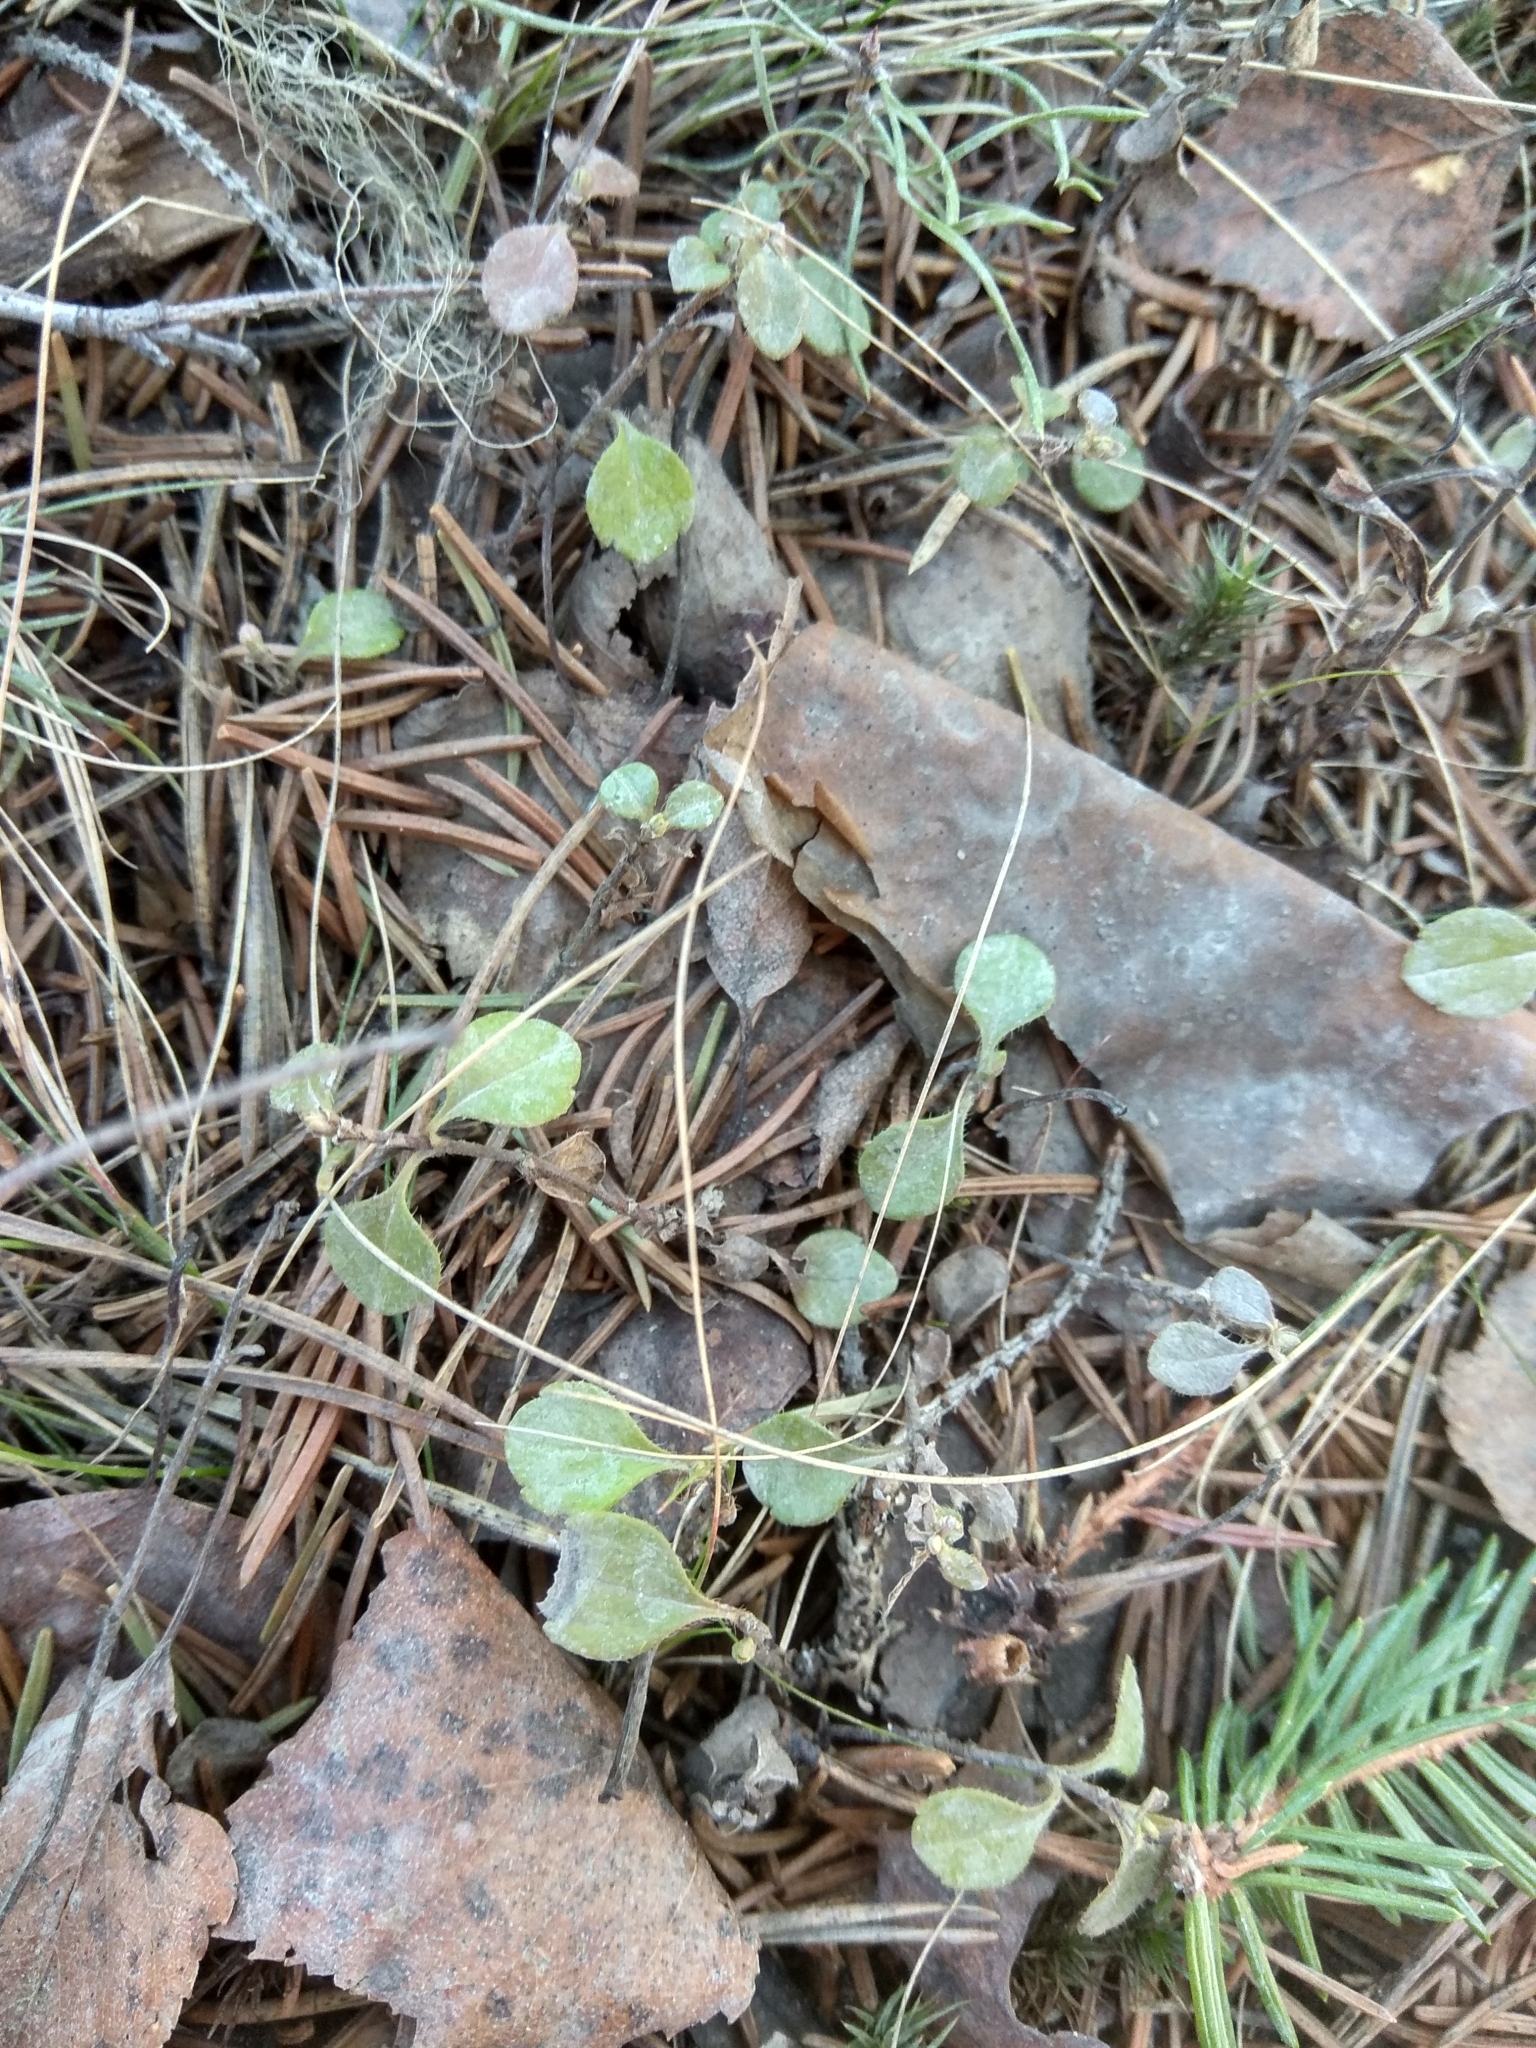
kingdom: Plantae
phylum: Tracheophyta
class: Magnoliopsida
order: Dipsacales
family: Caprifoliaceae
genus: Linnaea
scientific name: Linnaea borealis
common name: Twinflower
